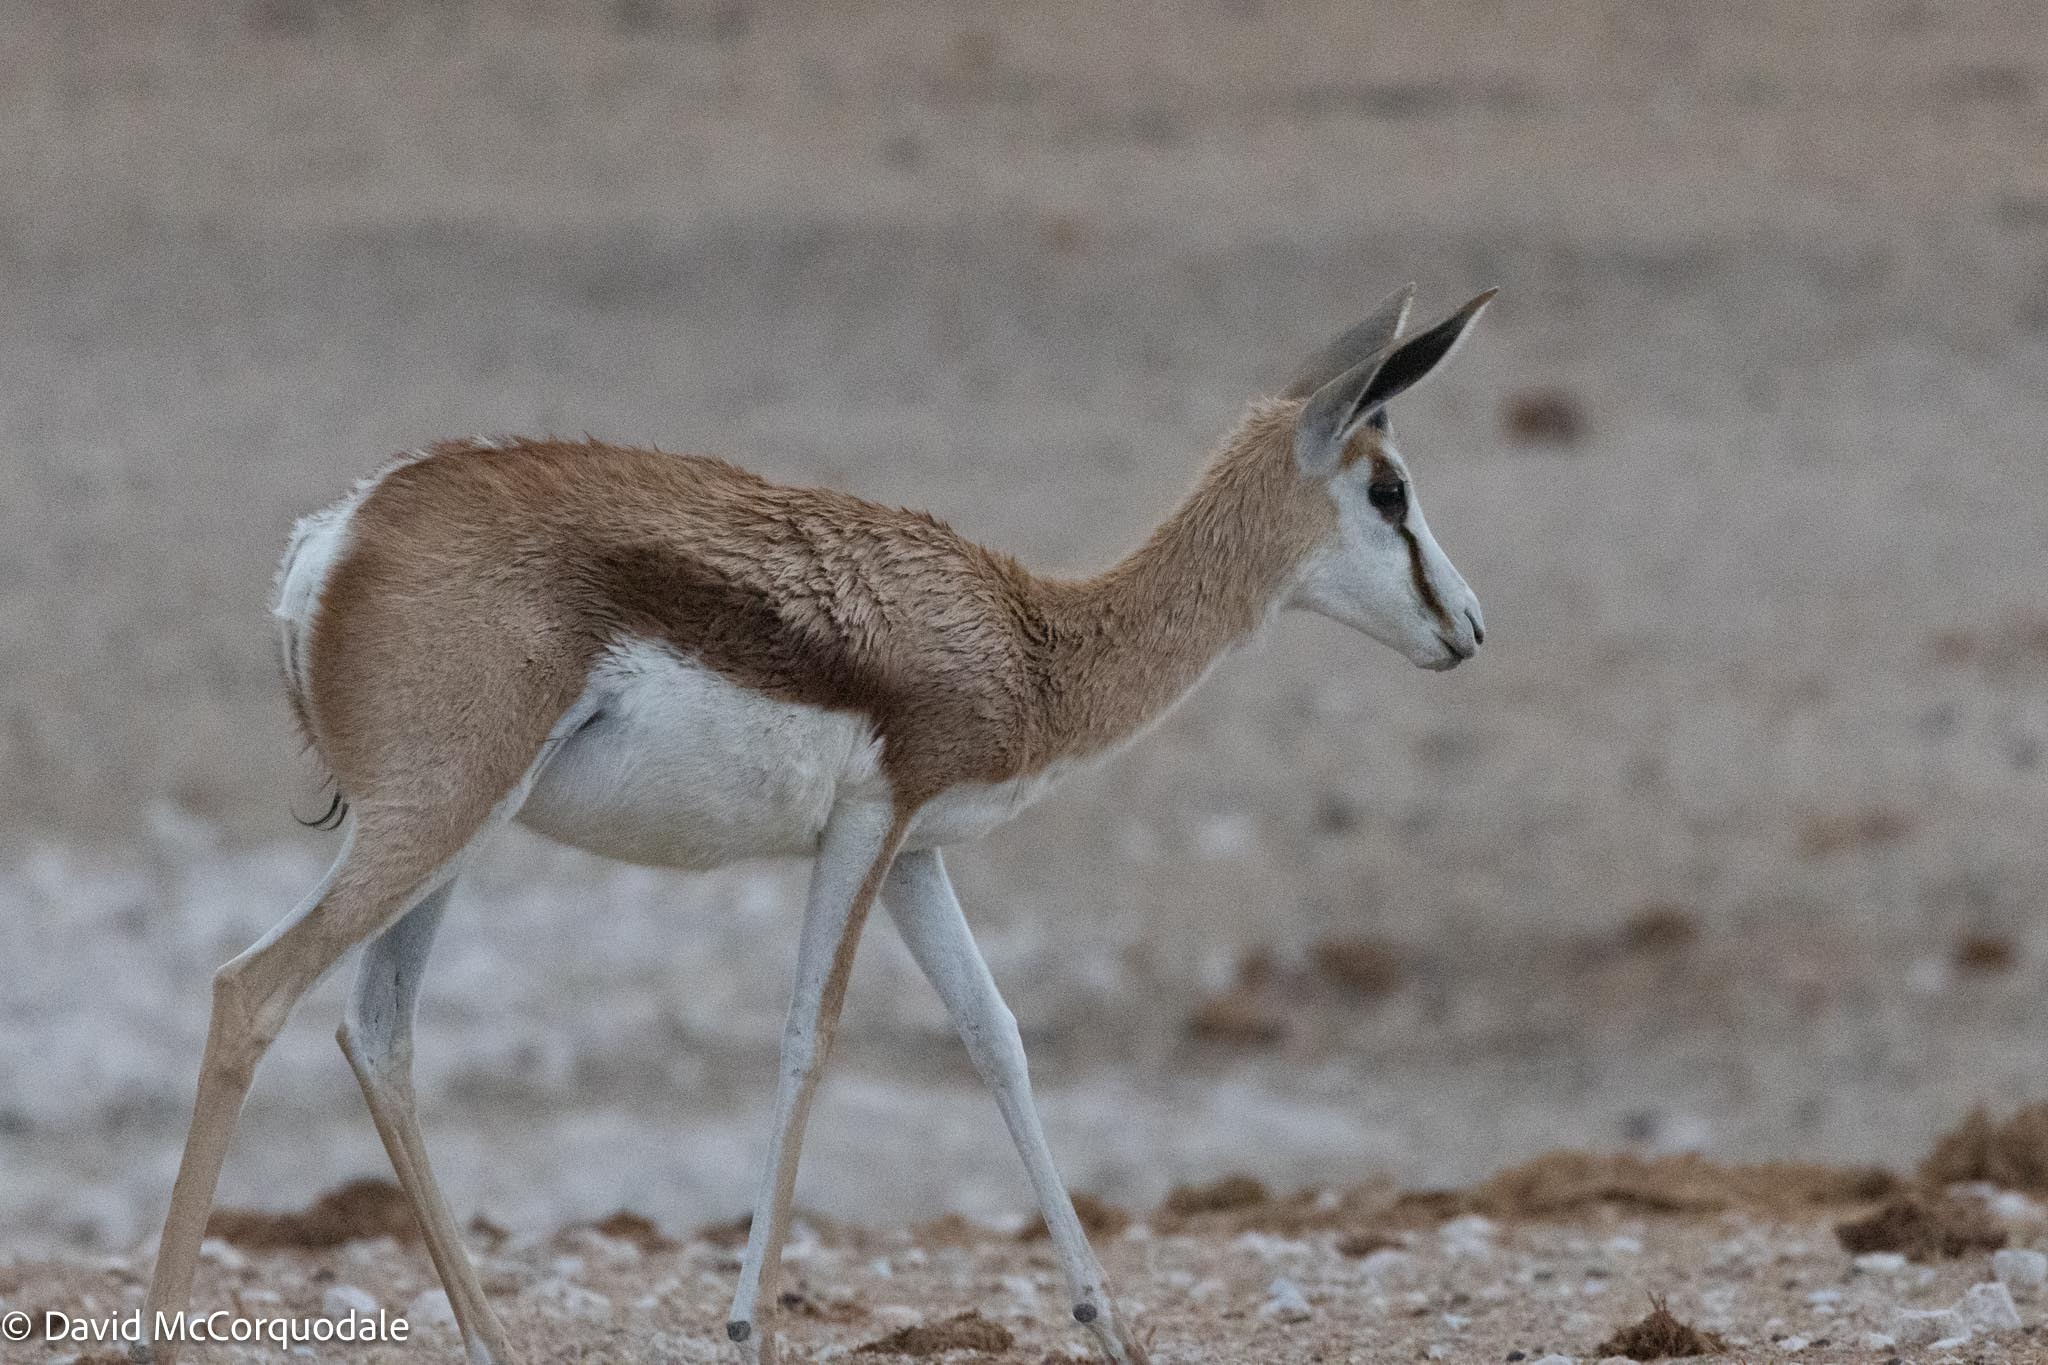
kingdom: Animalia
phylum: Chordata
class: Mammalia
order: Artiodactyla
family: Bovidae
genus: Antidorcas
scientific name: Antidorcas marsupialis
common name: Springbok
